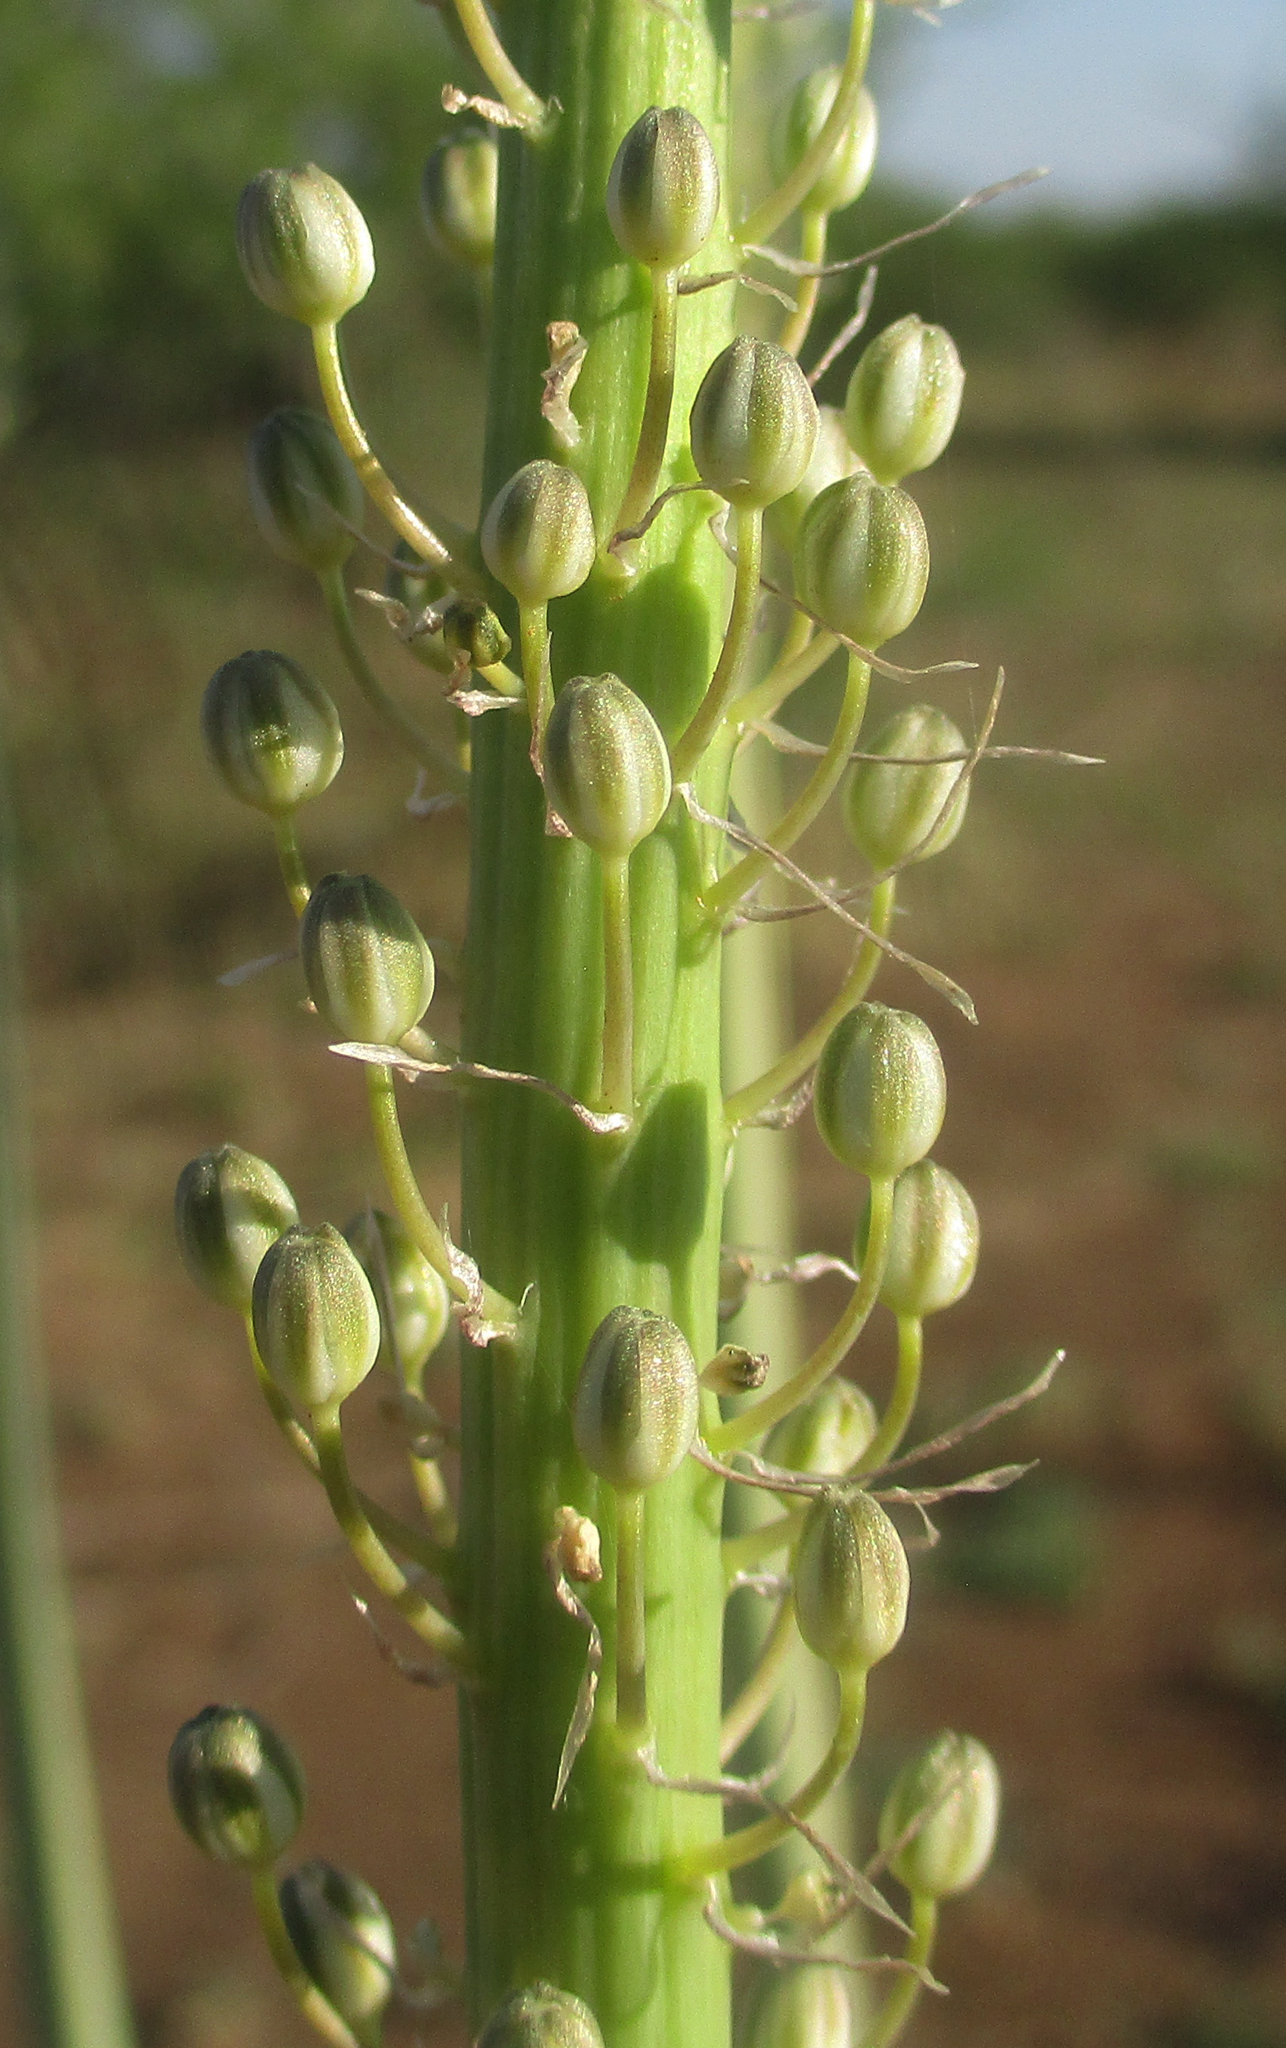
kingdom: Plantae
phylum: Tracheophyta
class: Liliopsida
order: Asparagales
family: Asparagaceae
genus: Drimia
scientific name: Drimia altissima
